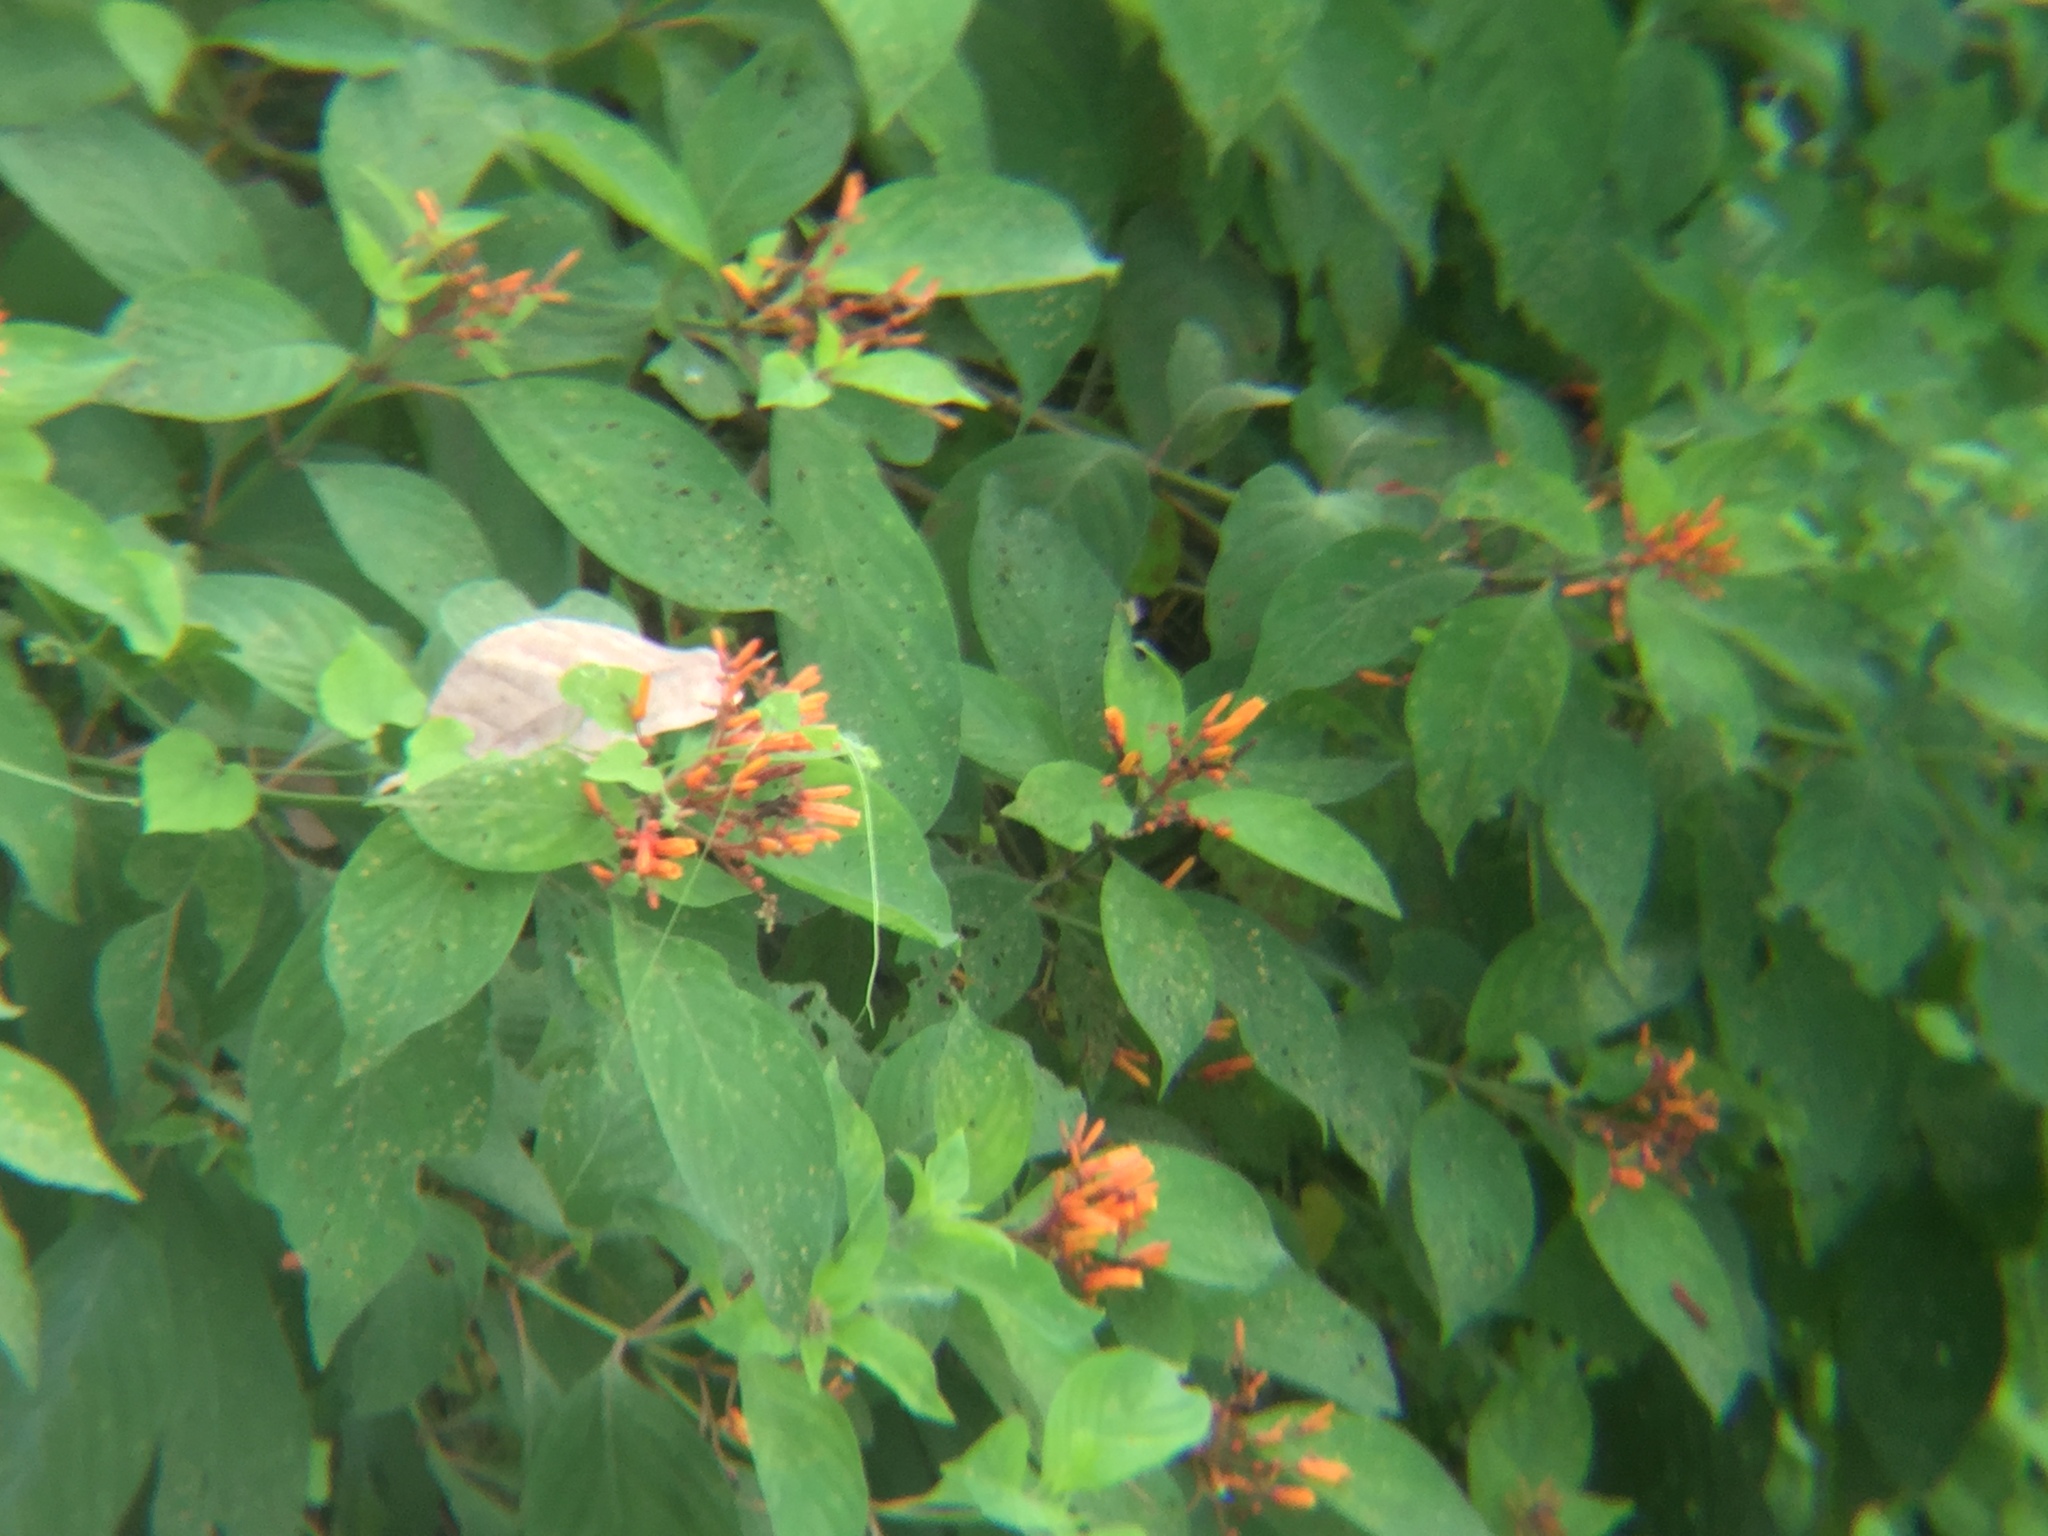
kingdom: Plantae
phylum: Tracheophyta
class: Magnoliopsida
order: Gentianales
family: Rubiaceae
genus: Hamelia
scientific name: Hamelia patens
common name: Redhead
